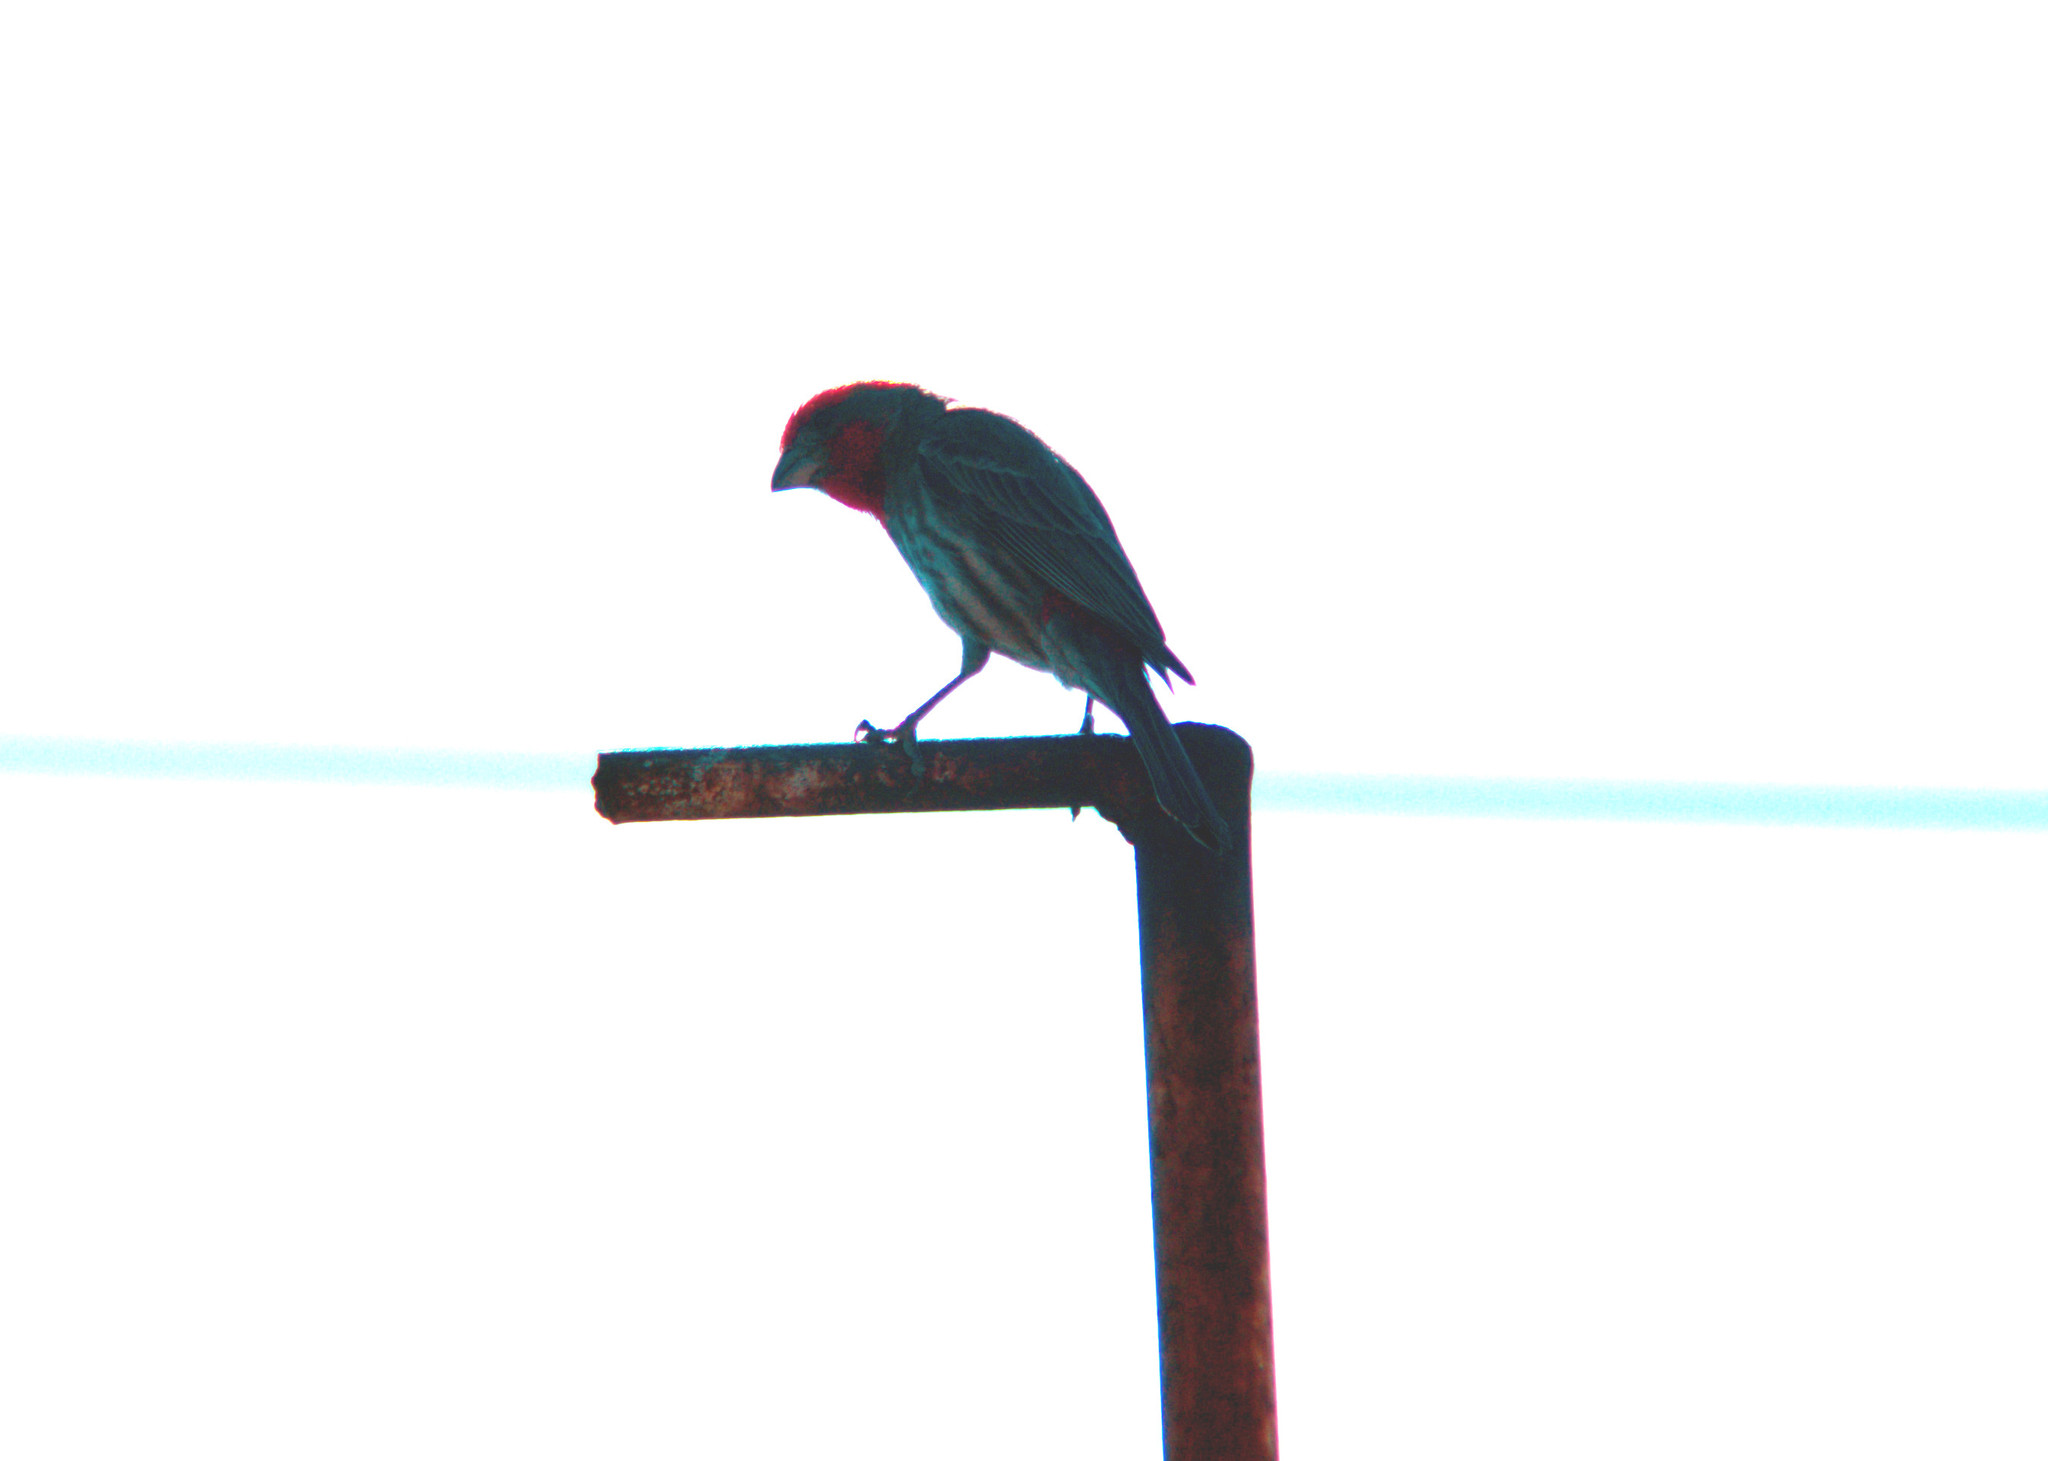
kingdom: Animalia
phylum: Chordata
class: Aves
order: Passeriformes
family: Fringillidae
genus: Haemorhous
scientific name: Haemorhous mexicanus
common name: House finch
